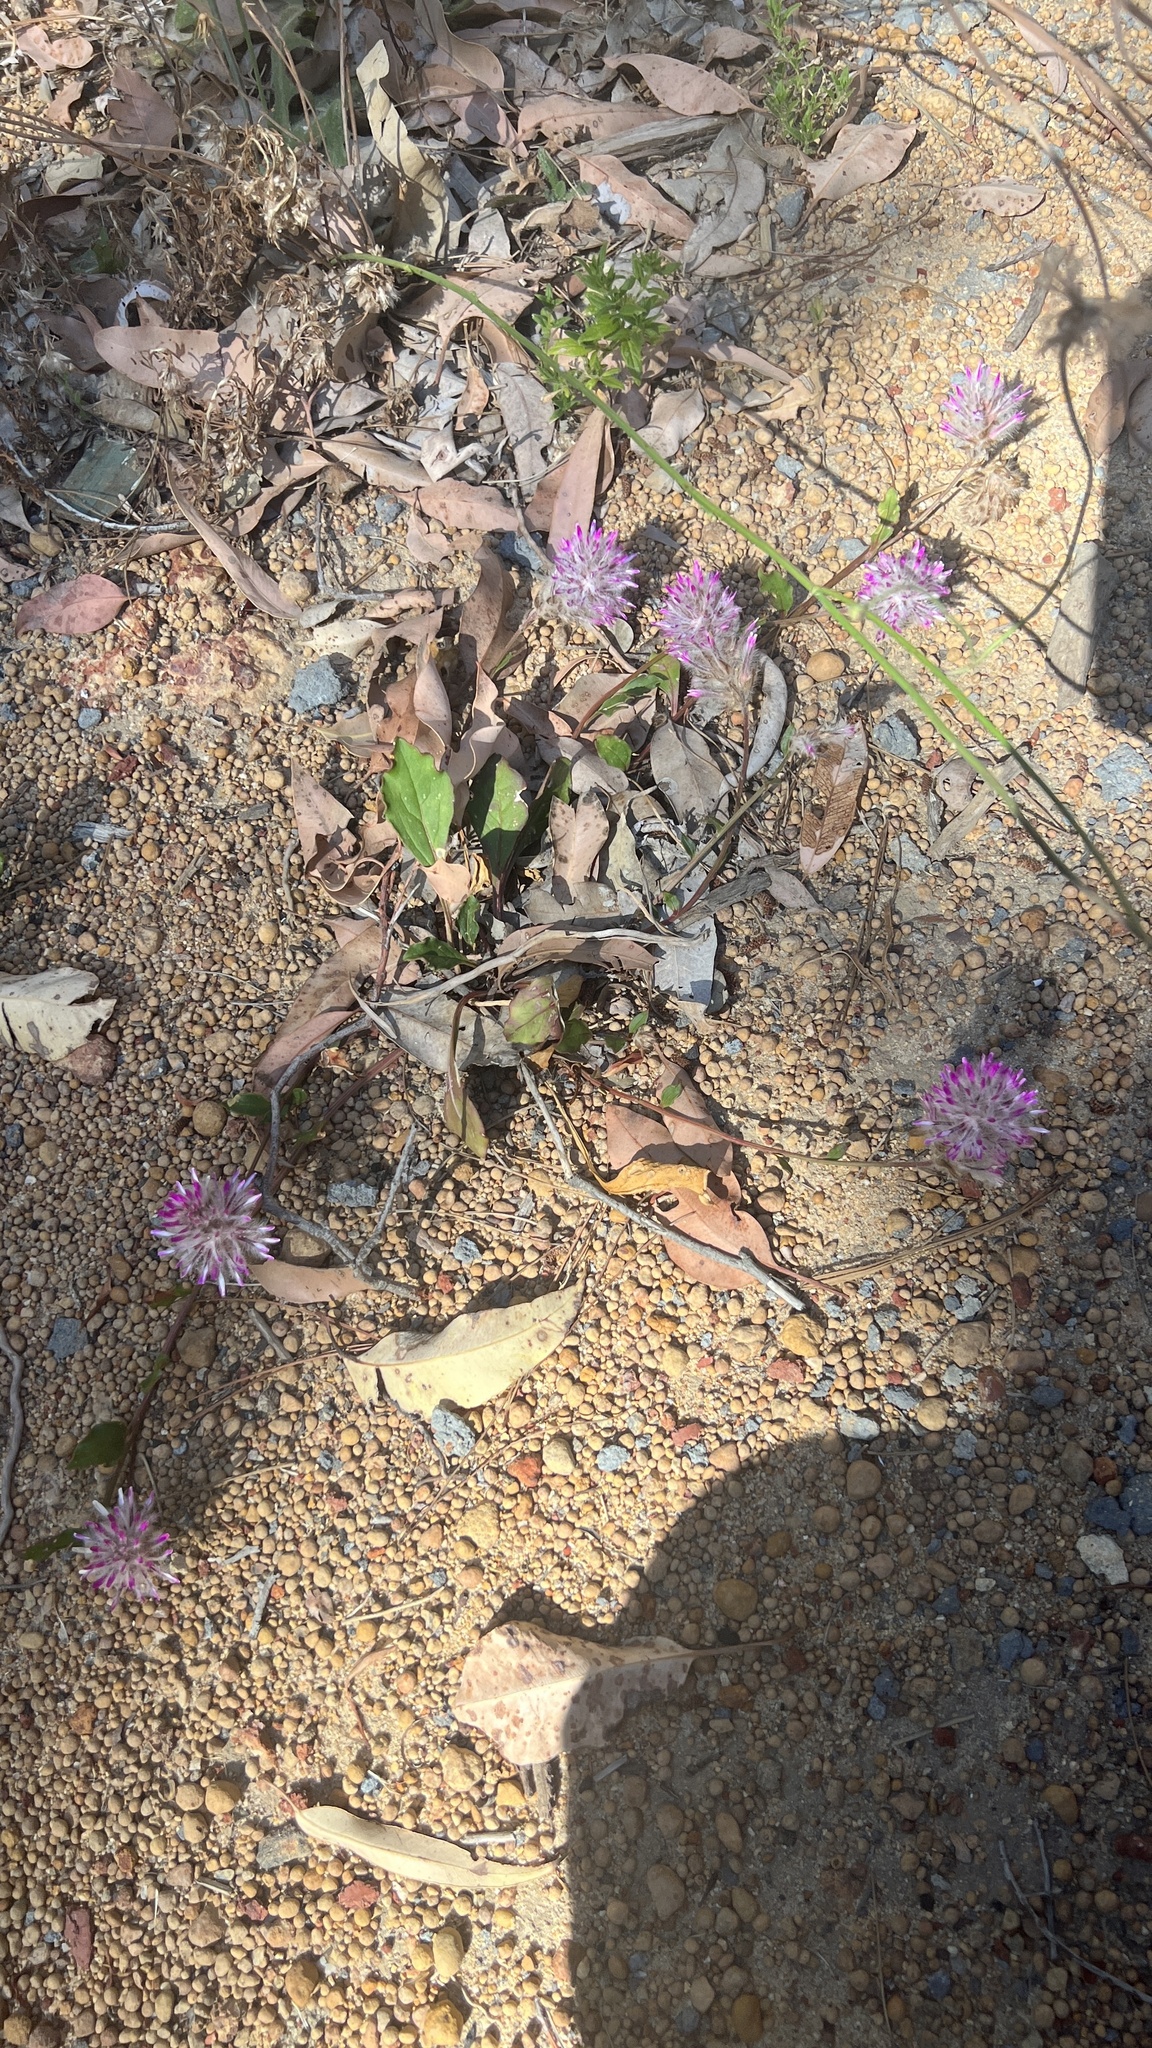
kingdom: Plantae
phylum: Tracheophyta
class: Magnoliopsida
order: Caryophyllales
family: Amaranthaceae
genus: Ptilotus
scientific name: Ptilotus manglesii
